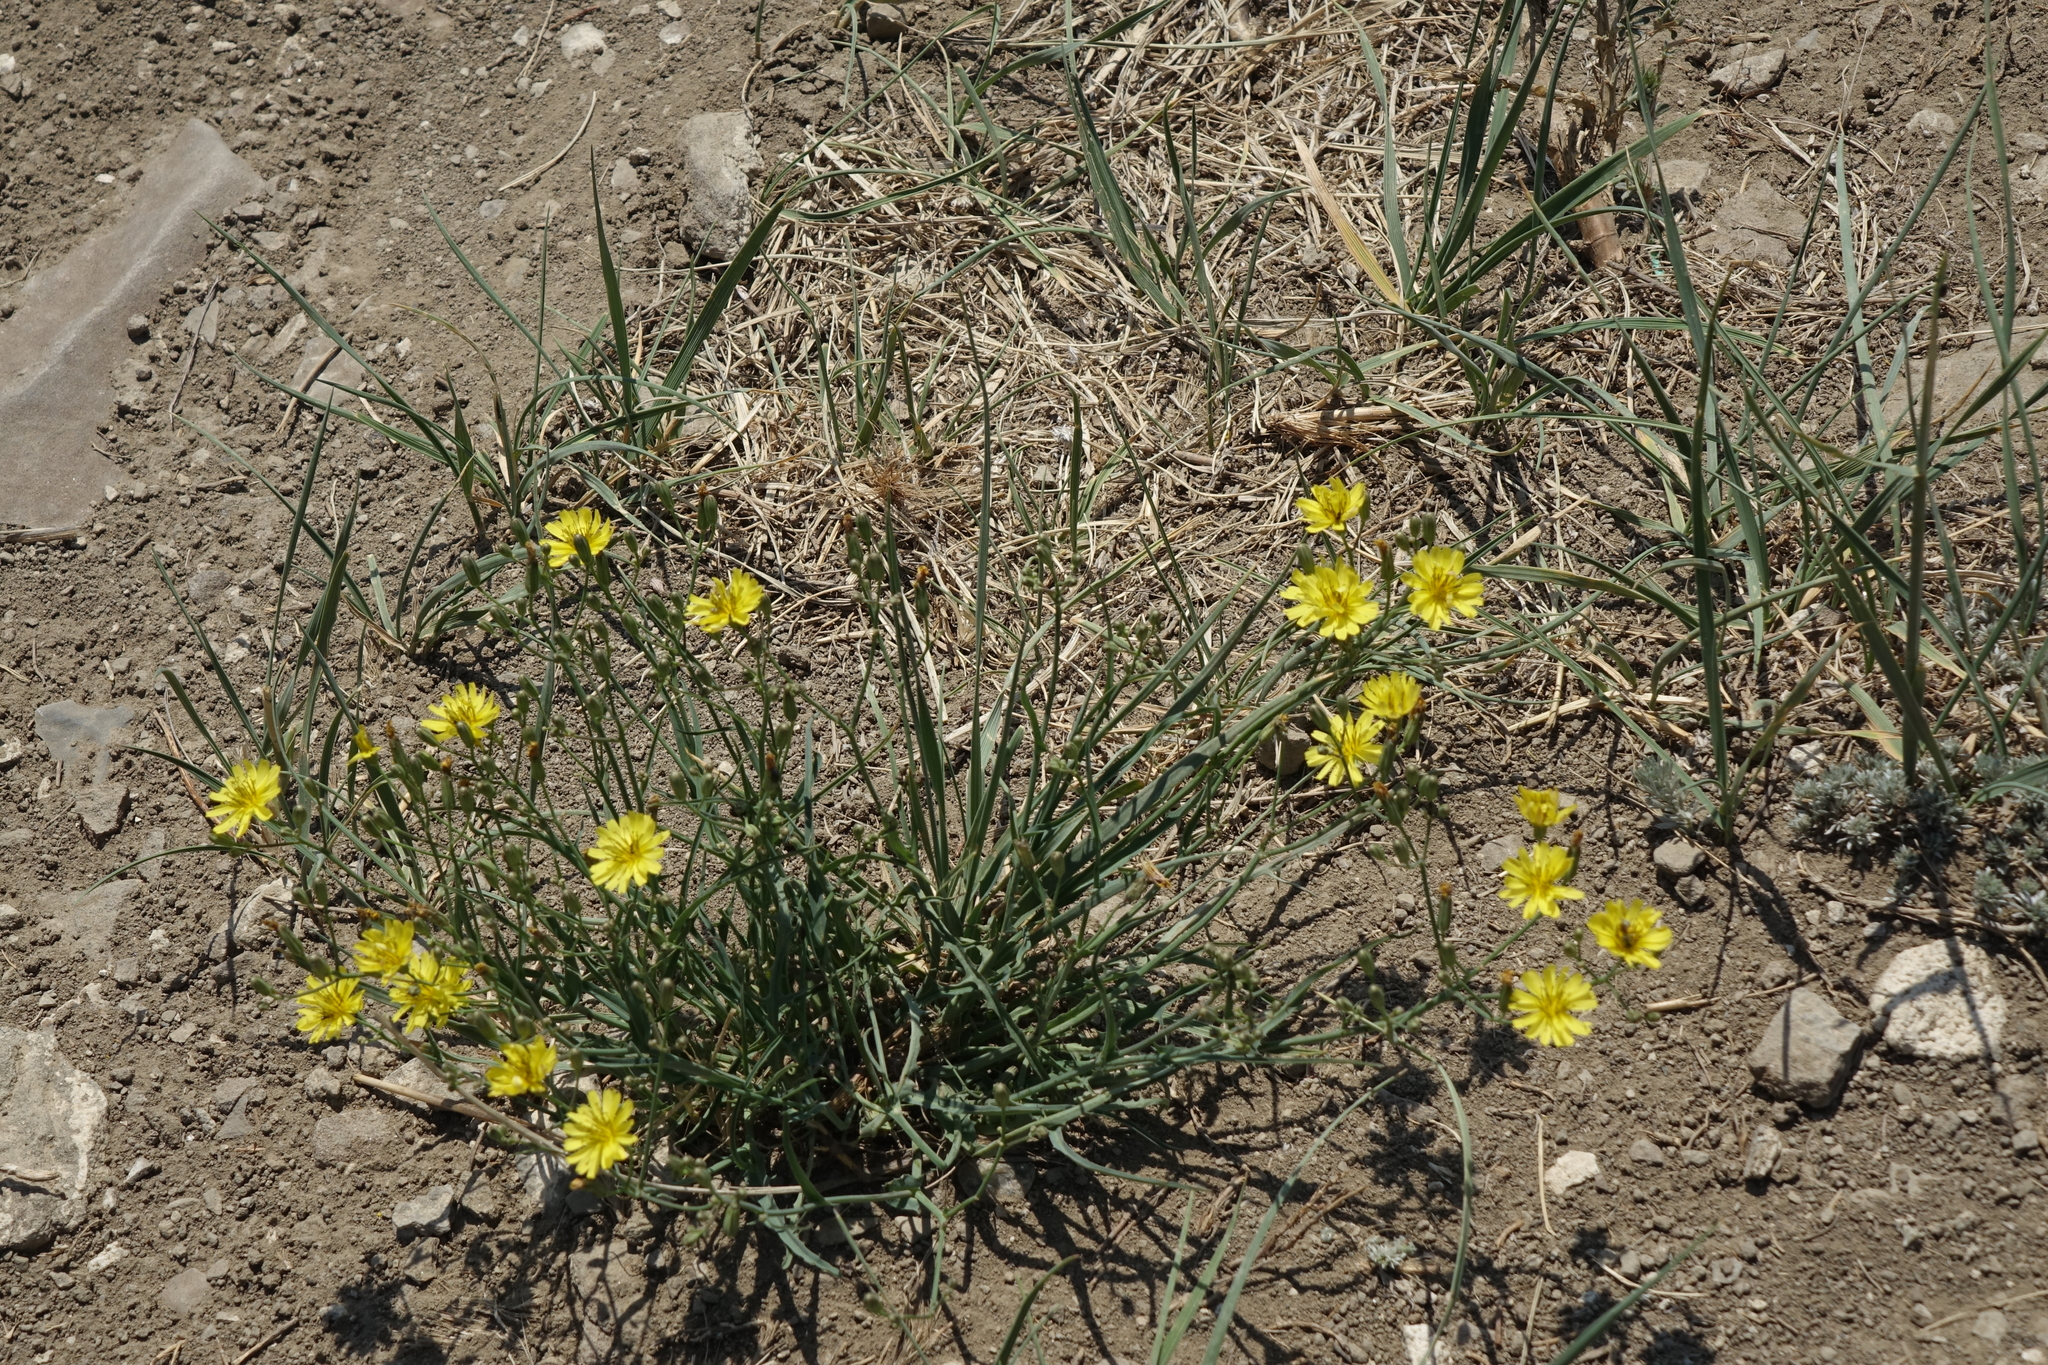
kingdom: Plantae
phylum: Tracheophyta
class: Magnoliopsida
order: Asterales
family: Asteraceae
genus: Crepidiastrum
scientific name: Crepidiastrum tenuifolium
